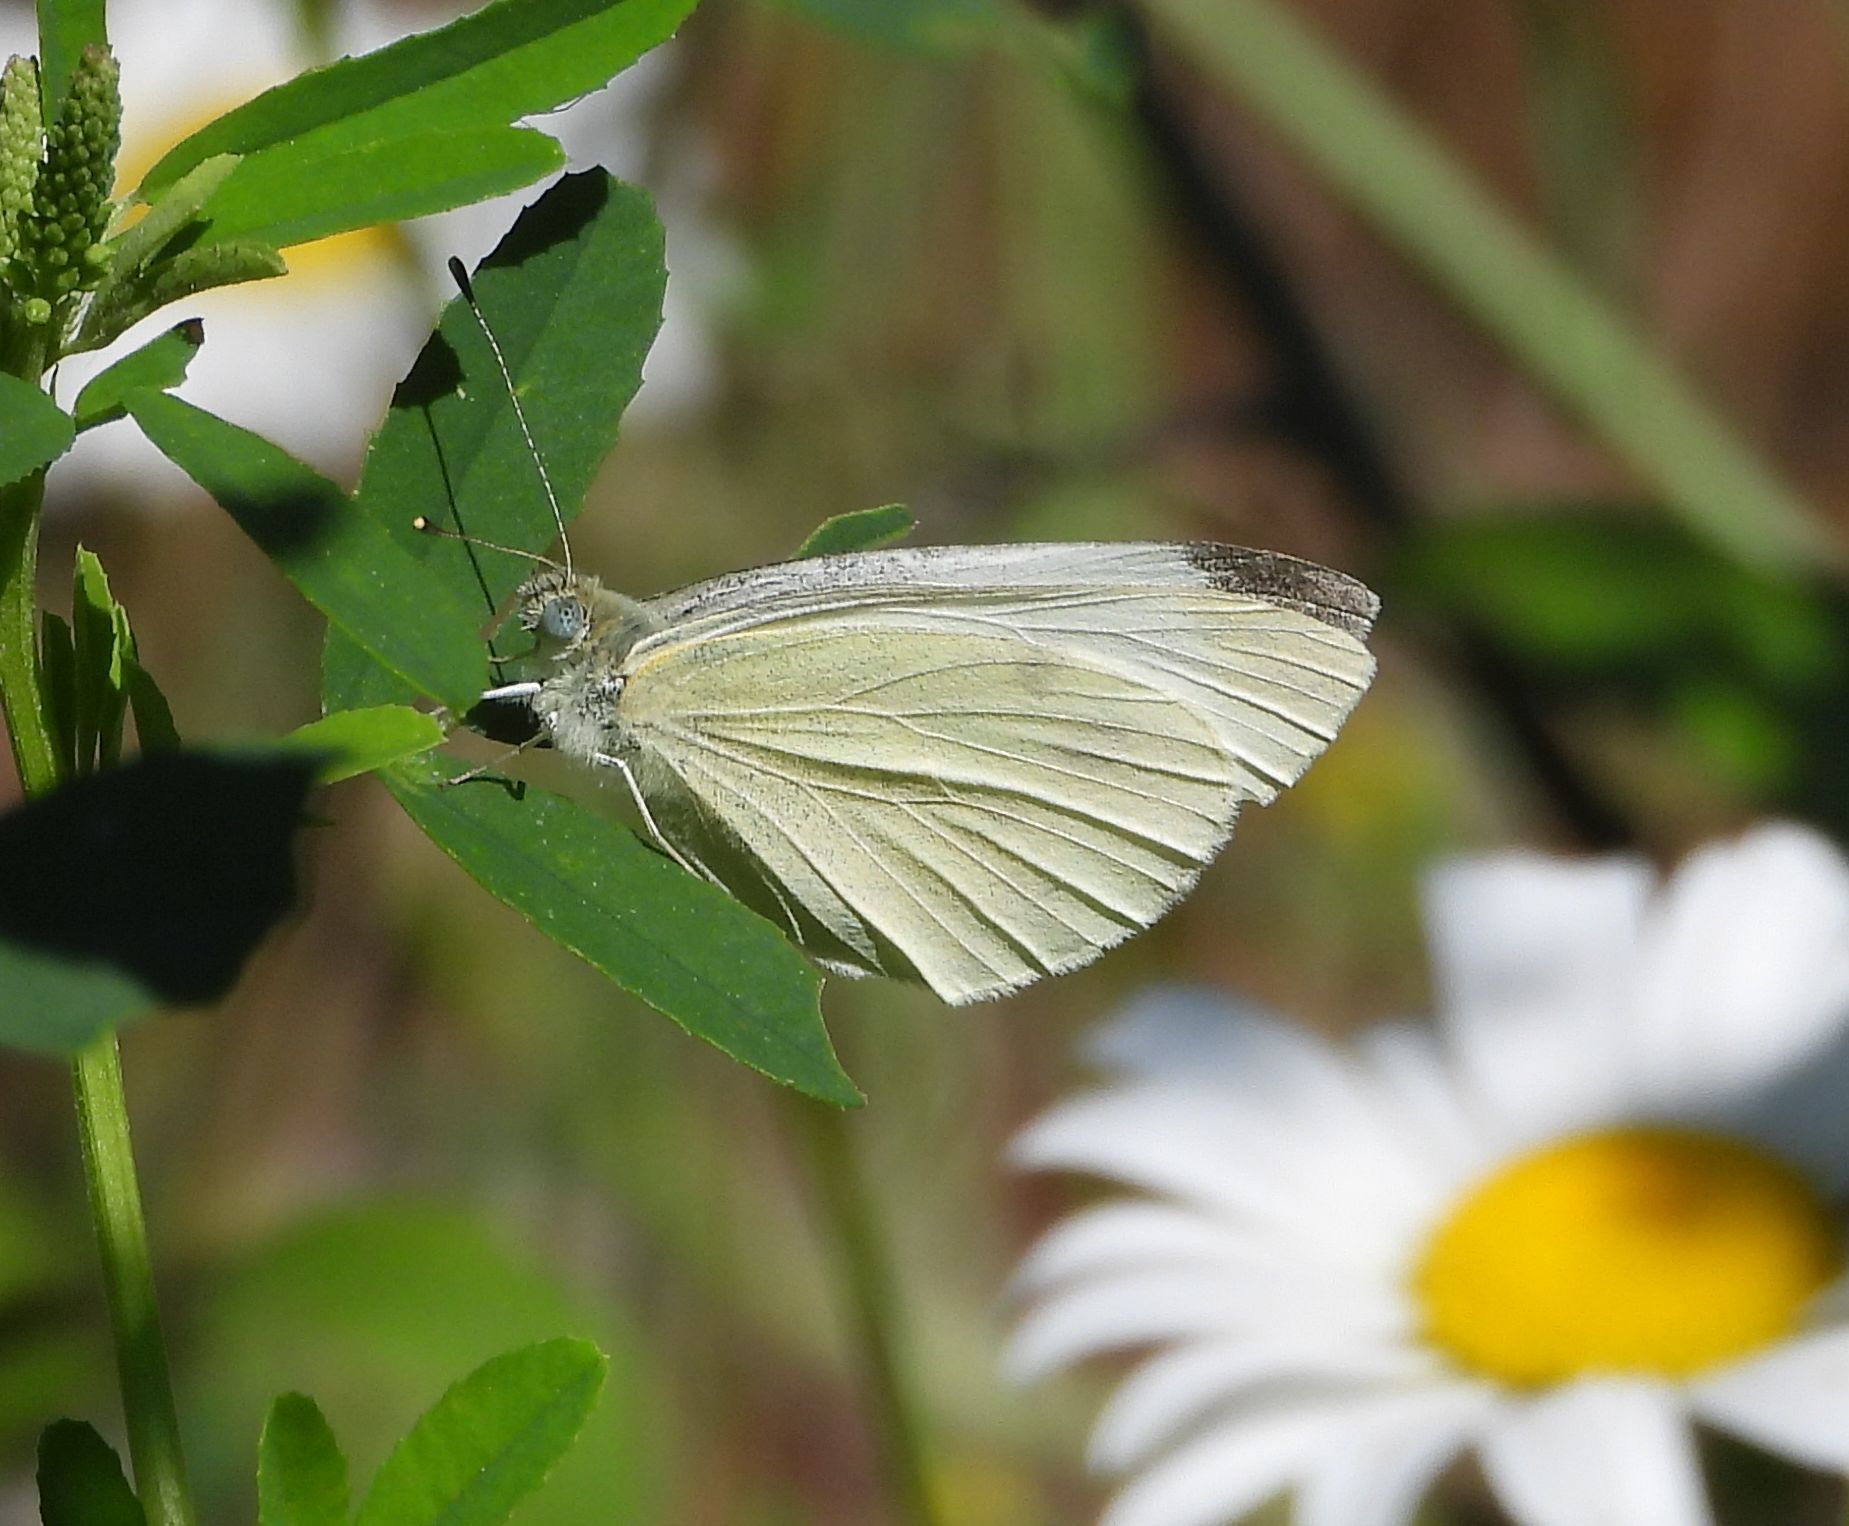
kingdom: Animalia
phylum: Arthropoda
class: Insecta
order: Lepidoptera
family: Pieridae
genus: Pieris
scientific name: Pieris rapae
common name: Small white
